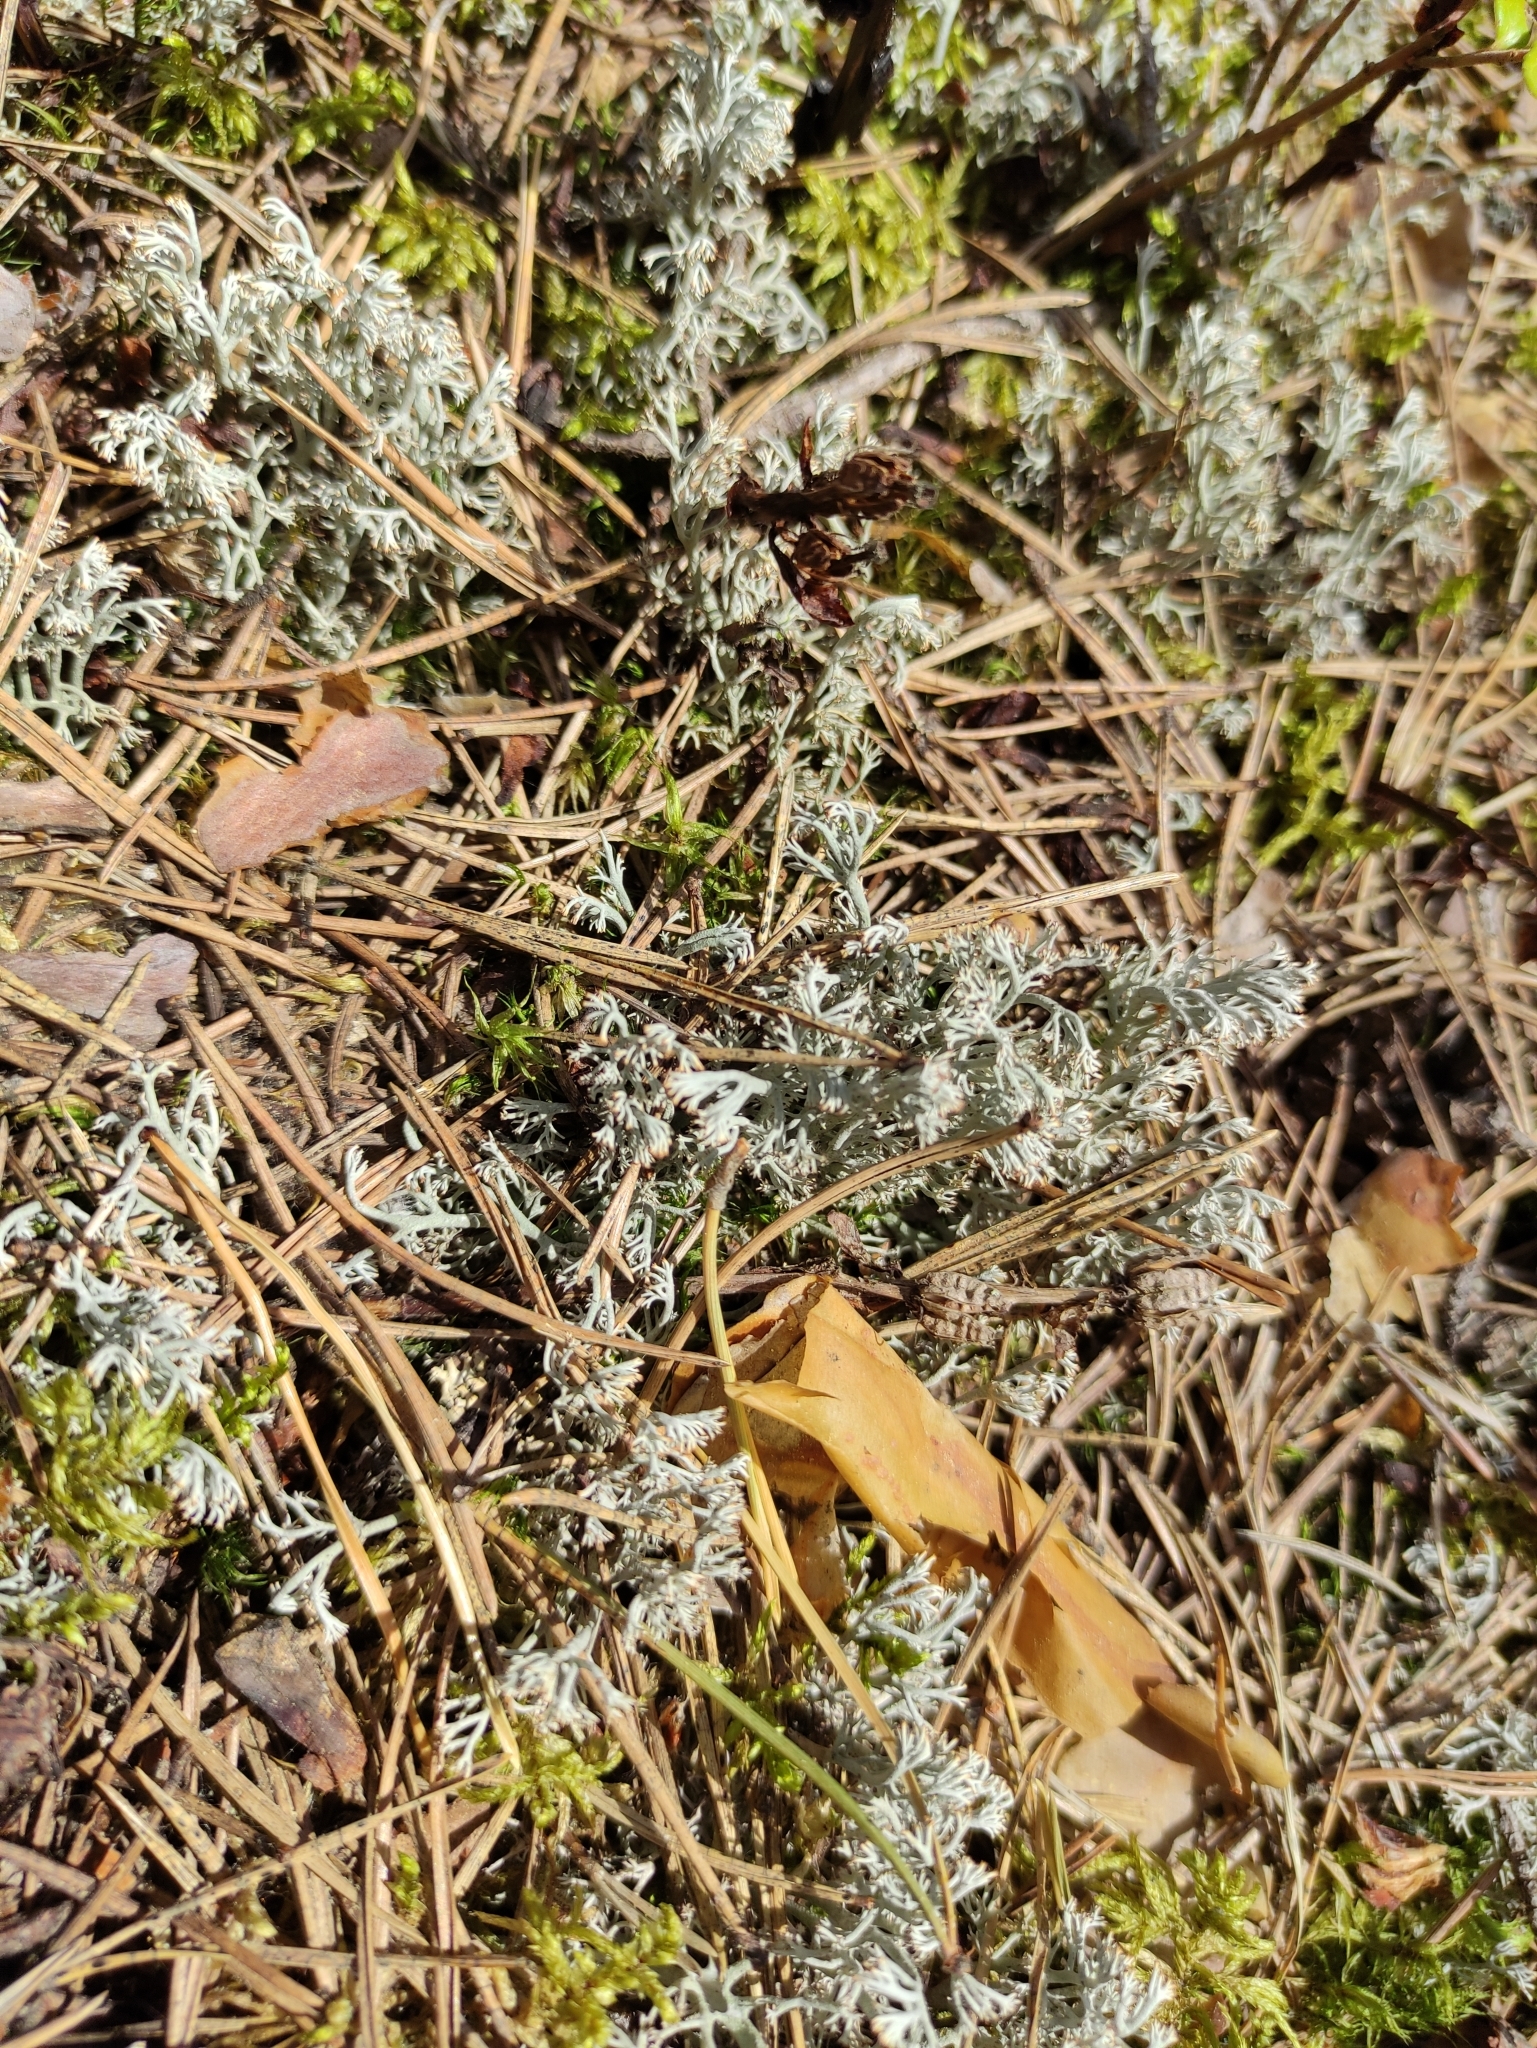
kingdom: Fungi
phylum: Ascomycota
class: Lecanoromycetes
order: Lecanorales
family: Cladoniaceae
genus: Cladonia
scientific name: Cladonia rangiferina
